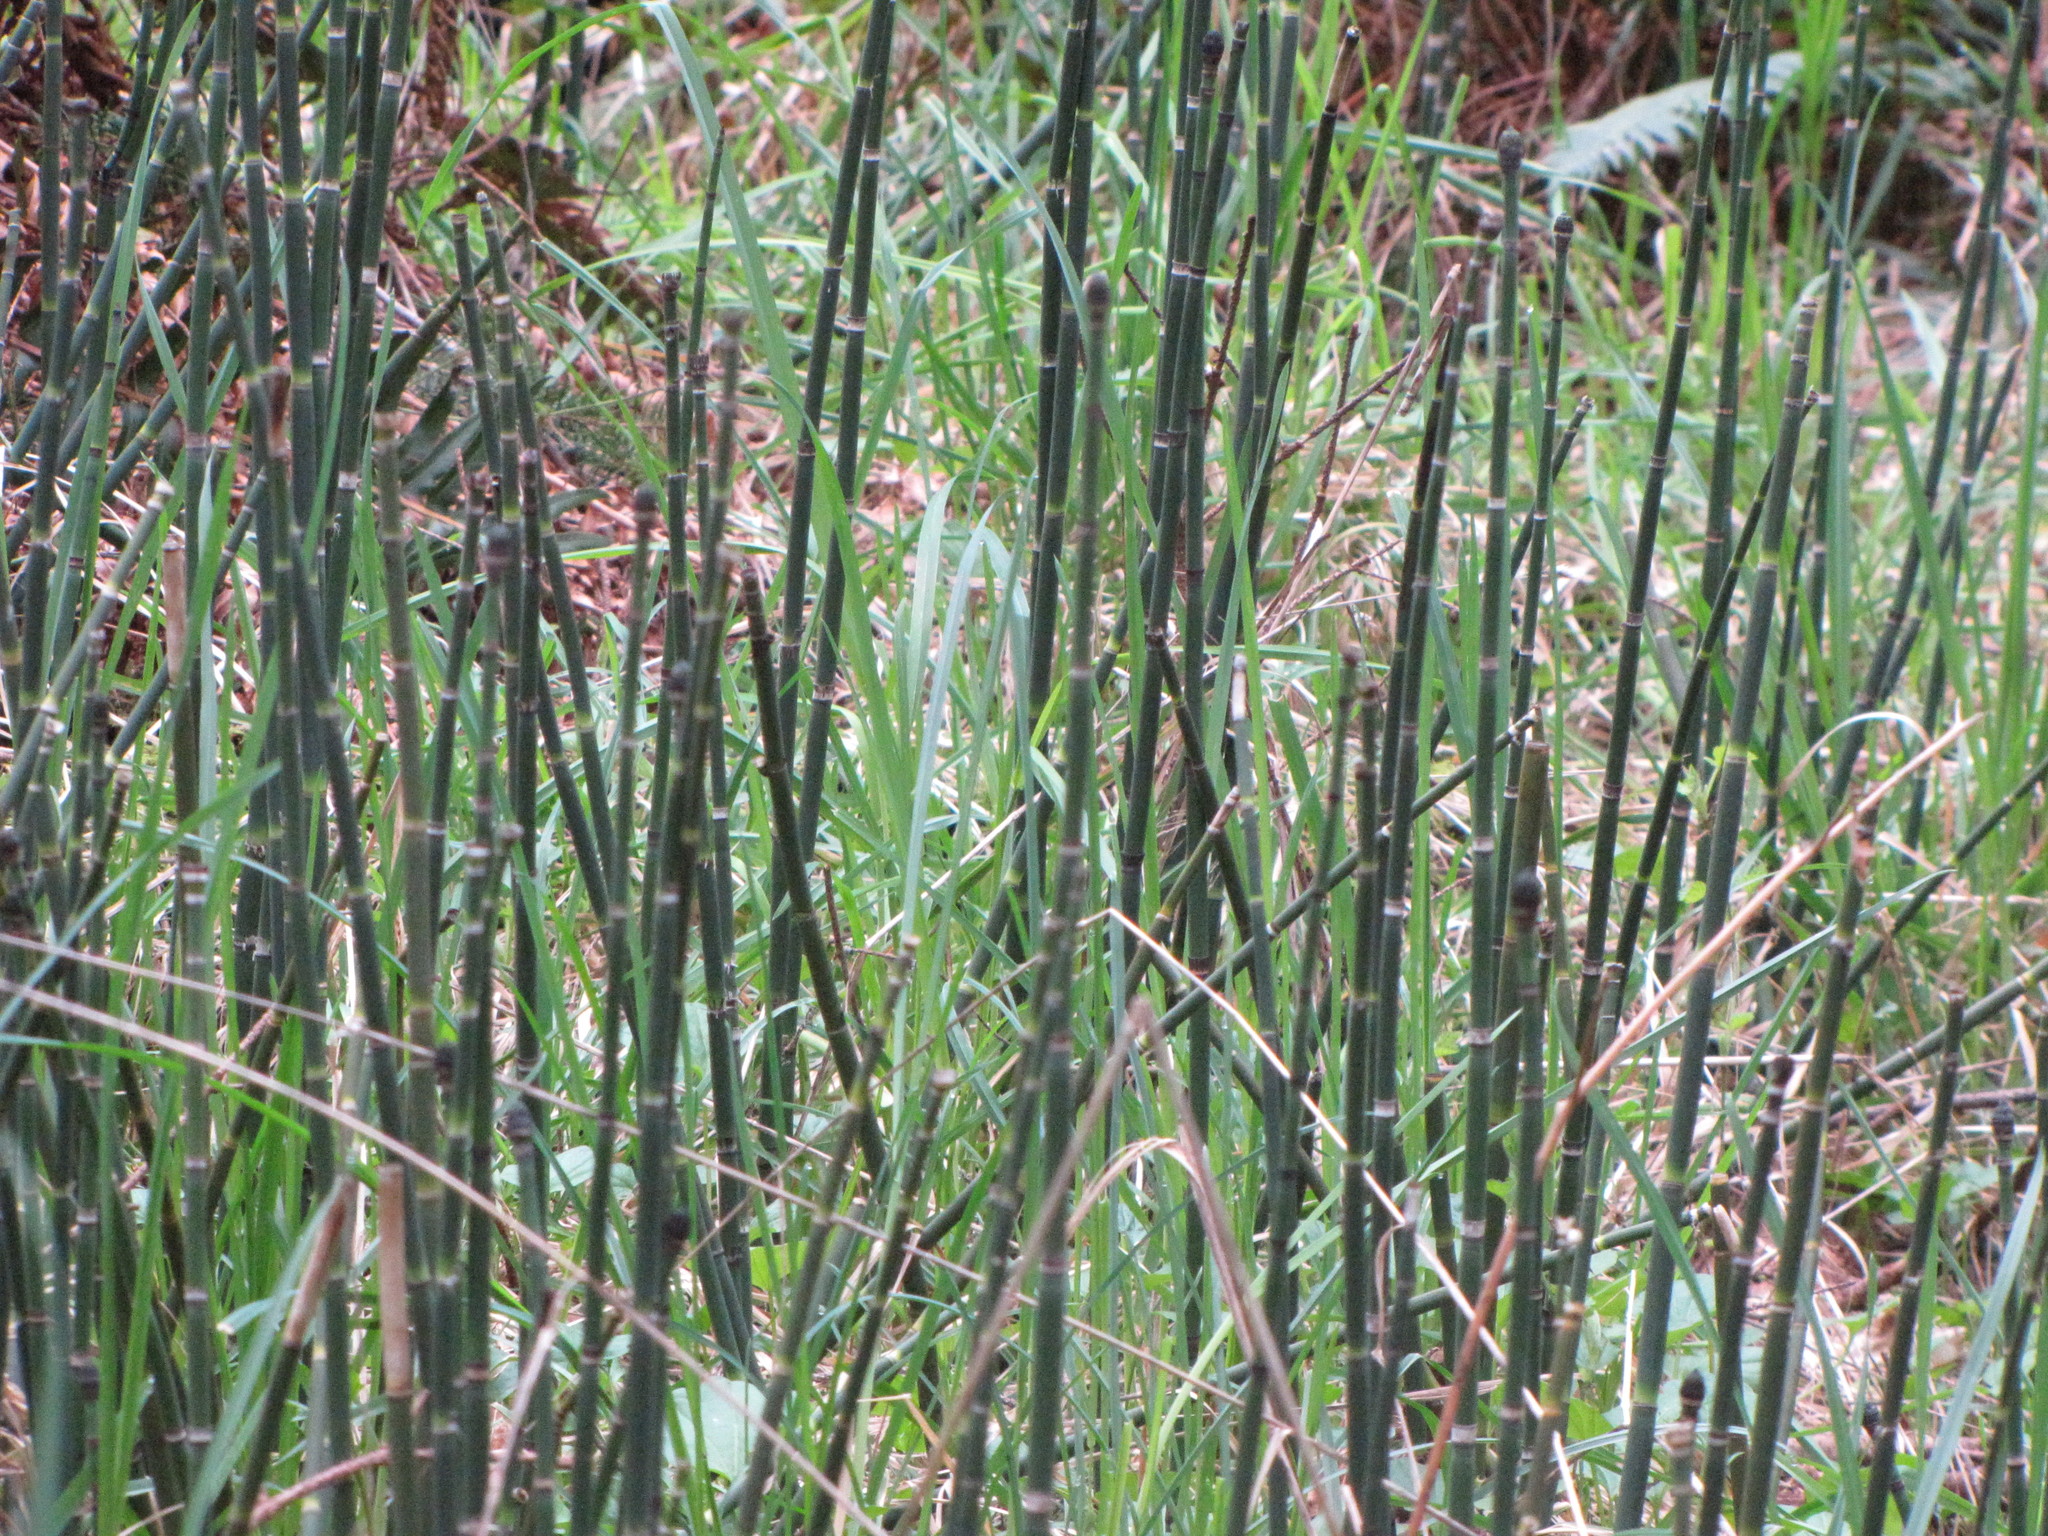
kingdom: Plantae
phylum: Tracheophyta
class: Polypodiopsida
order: Equisetales
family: Equisetaceae
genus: Equisetum
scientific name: Equisetum hyemale
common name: Rough horsetail
